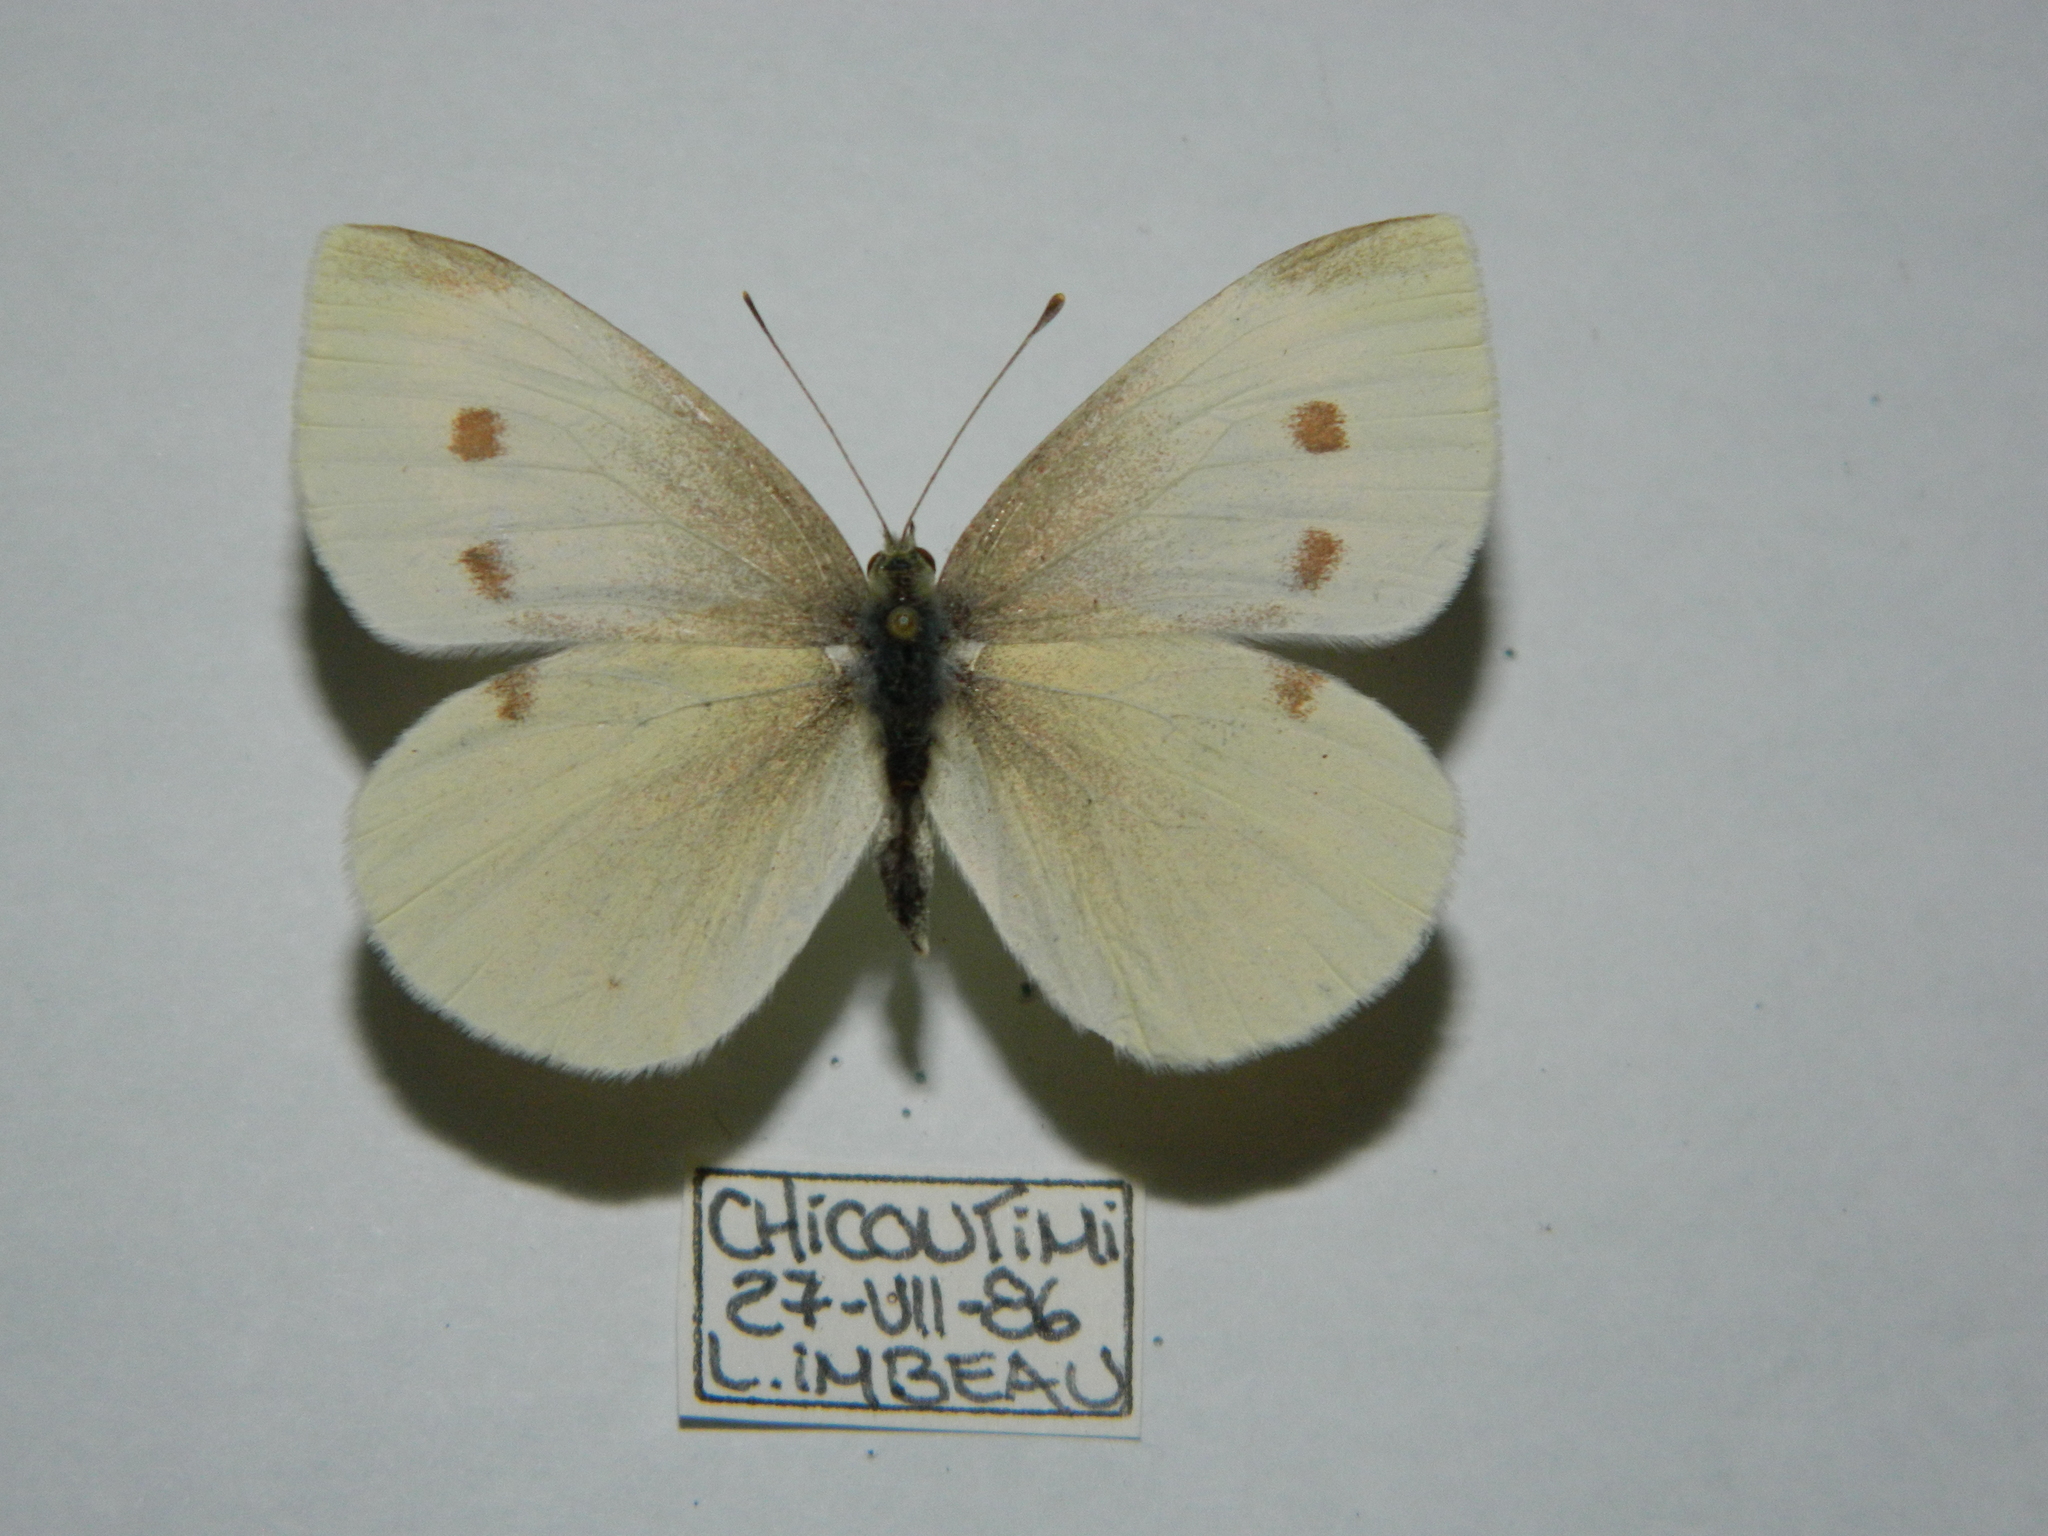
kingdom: Animalia
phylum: Arthropoda
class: Insecta
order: Lepidoptera
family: Pieridae
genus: Pieris
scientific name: Pieris rapae
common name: Small white
